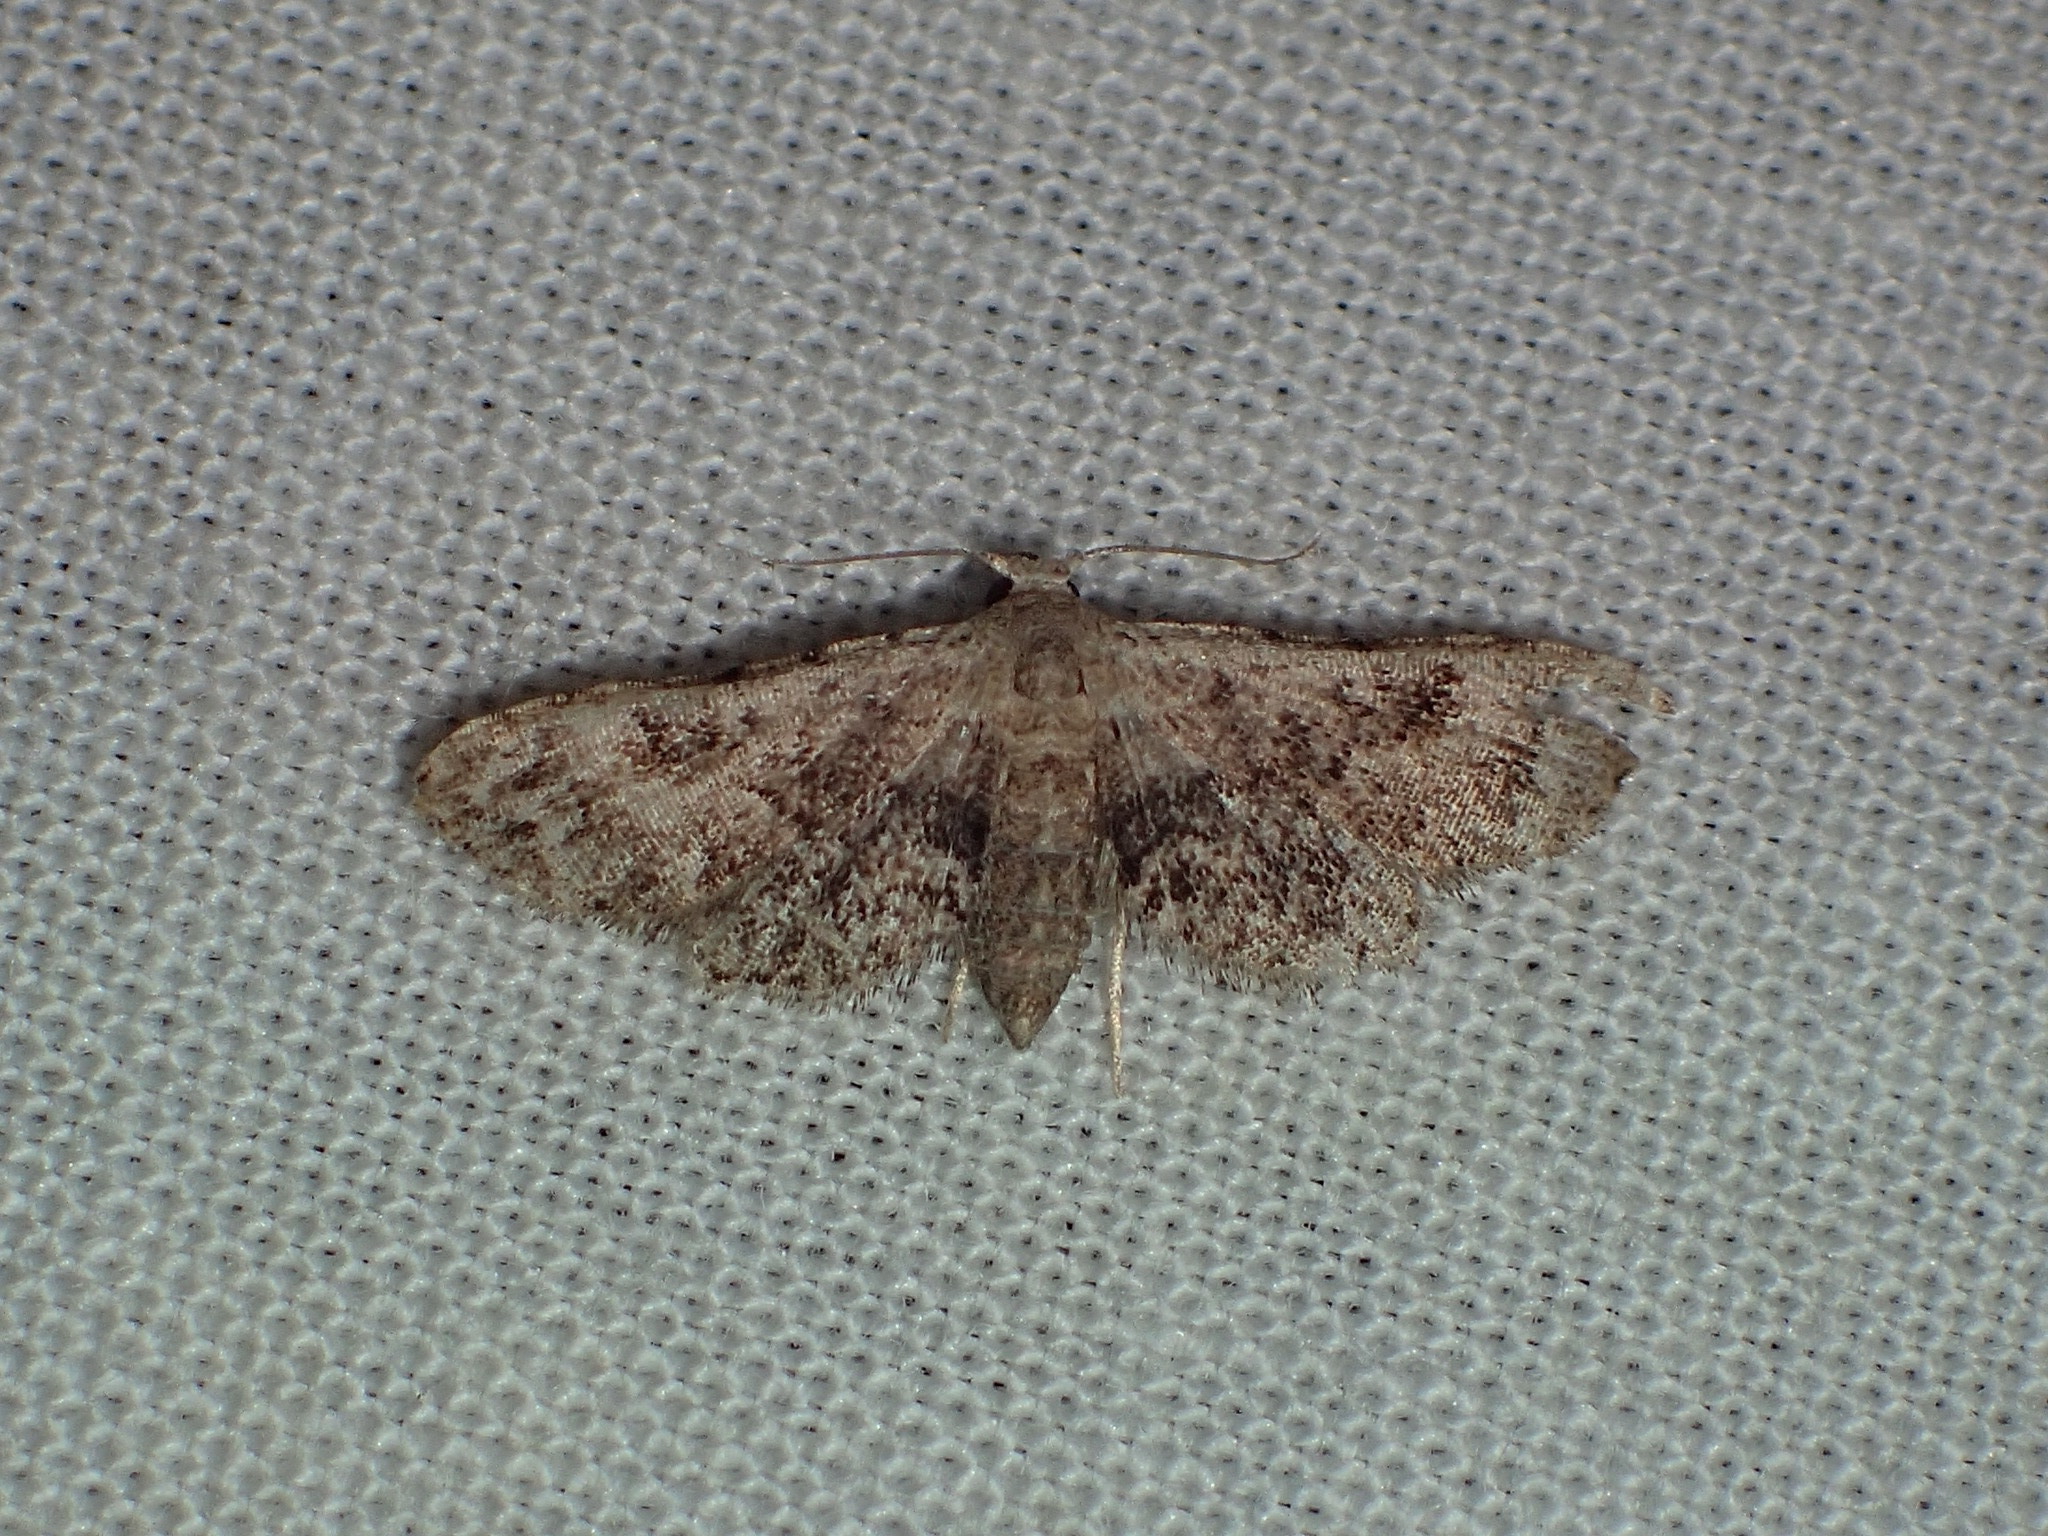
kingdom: Animalia
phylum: Arthropoda
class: Insecta
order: Lepidoptera
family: Erebidae
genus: Sigela
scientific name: Sigela brauneata
